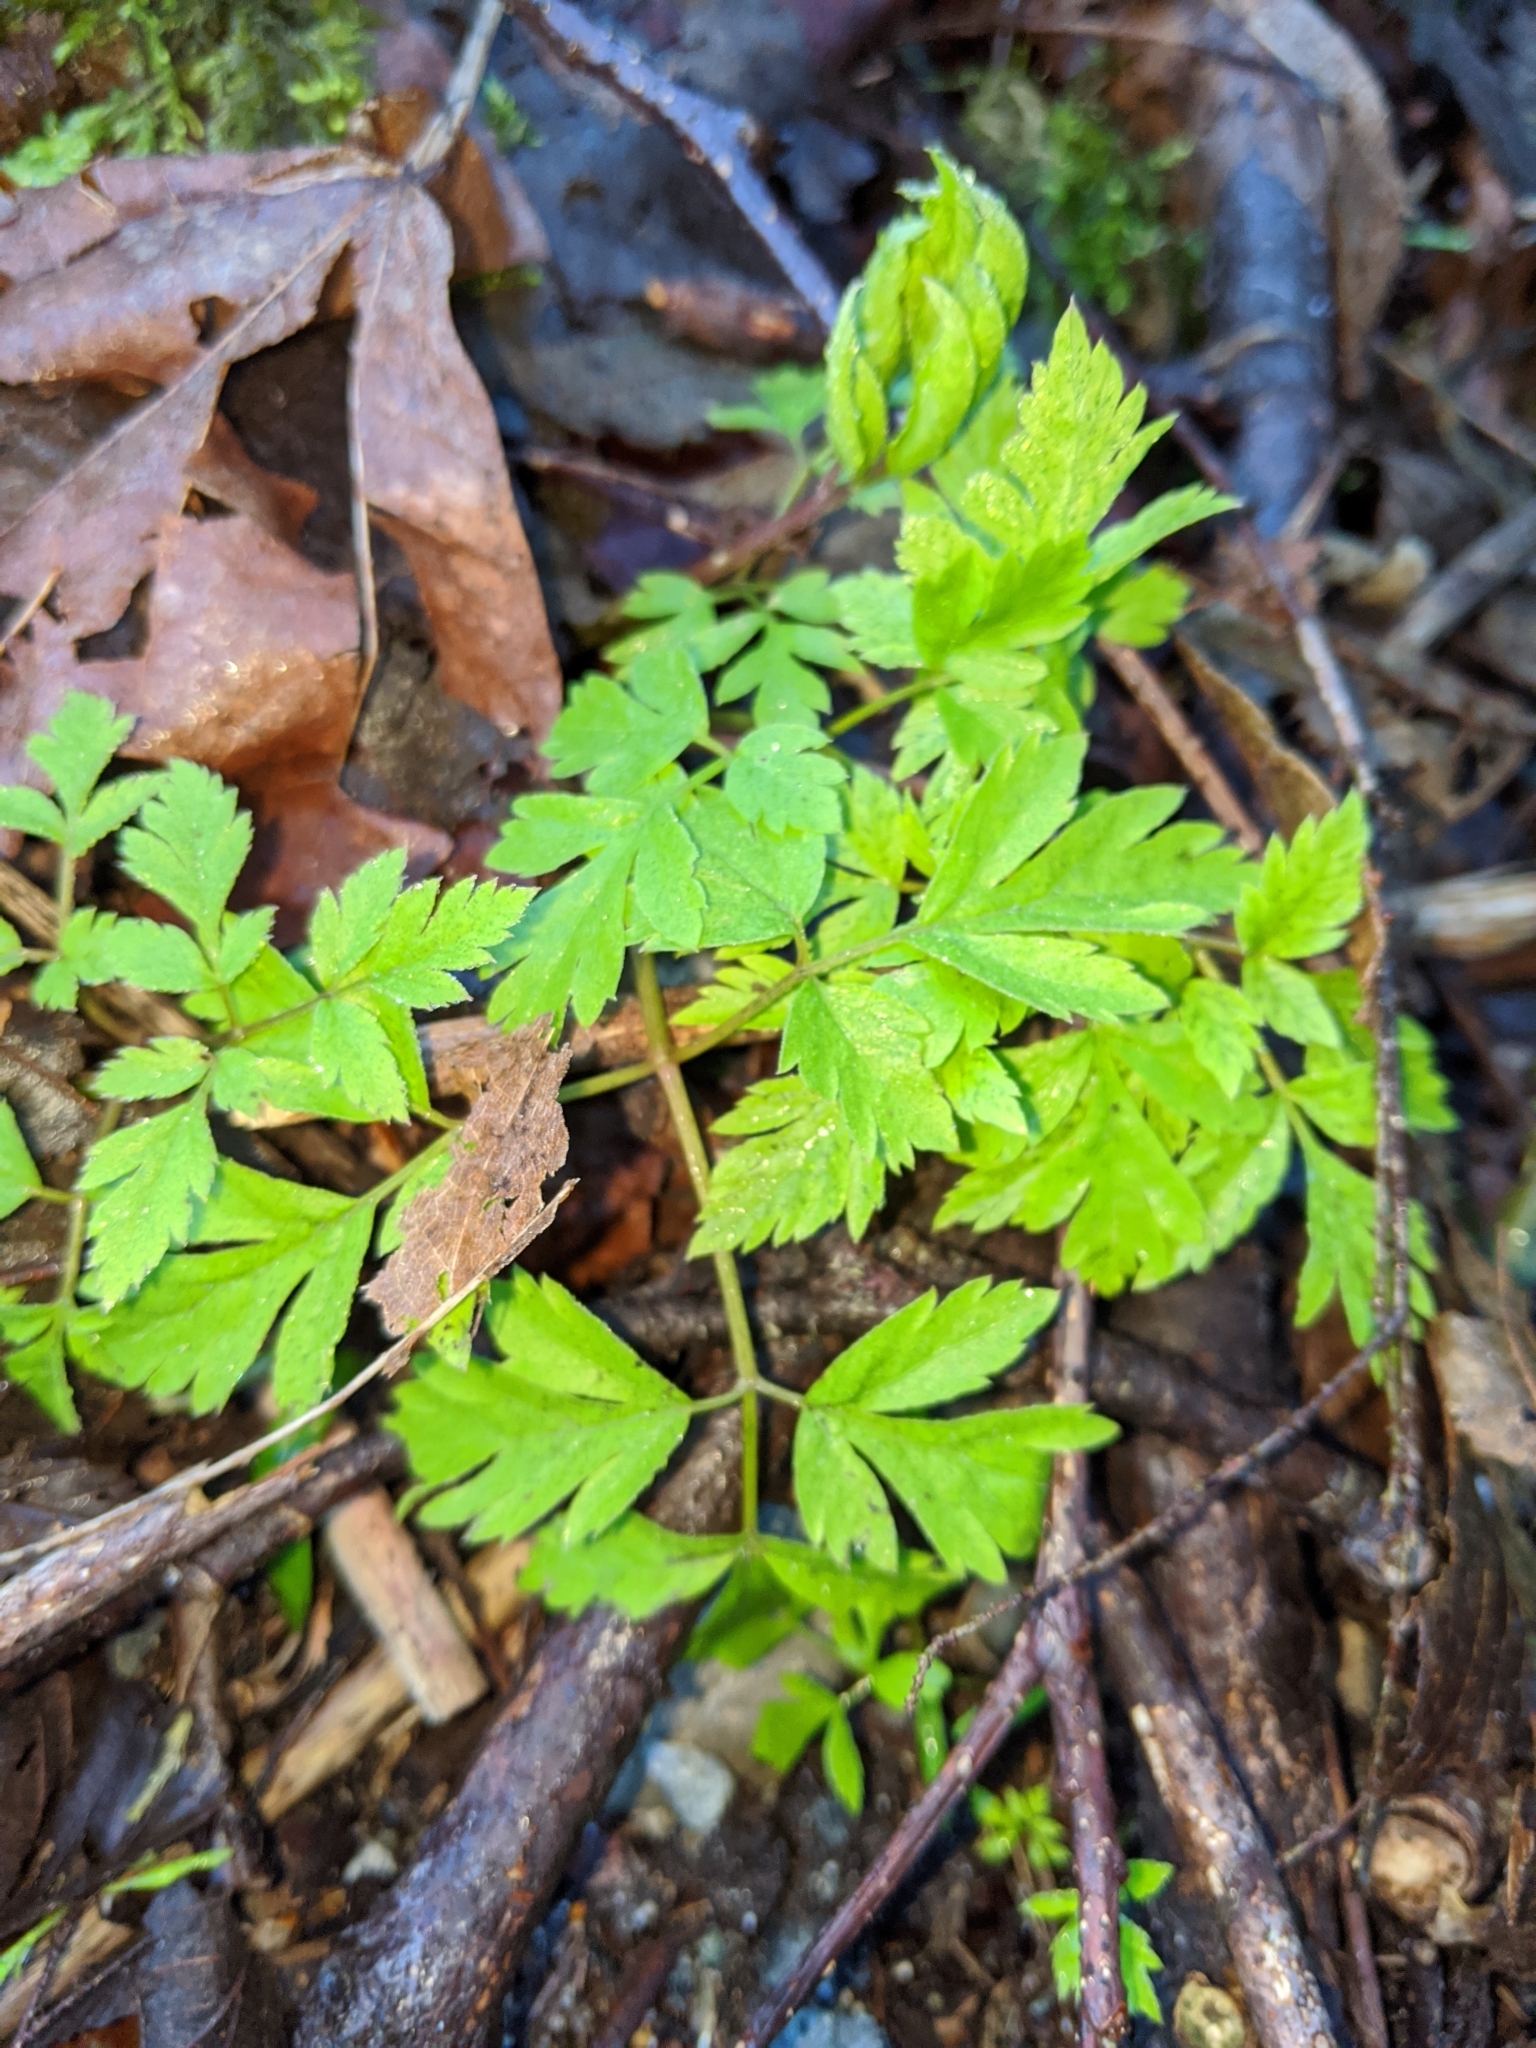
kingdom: Plantae
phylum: Tracheophyta
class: Magnoliopsida
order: Apiales
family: Apiaceae
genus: Osmorhiza
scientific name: Osmorhiza berteroi
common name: Mountain sweet cicely
